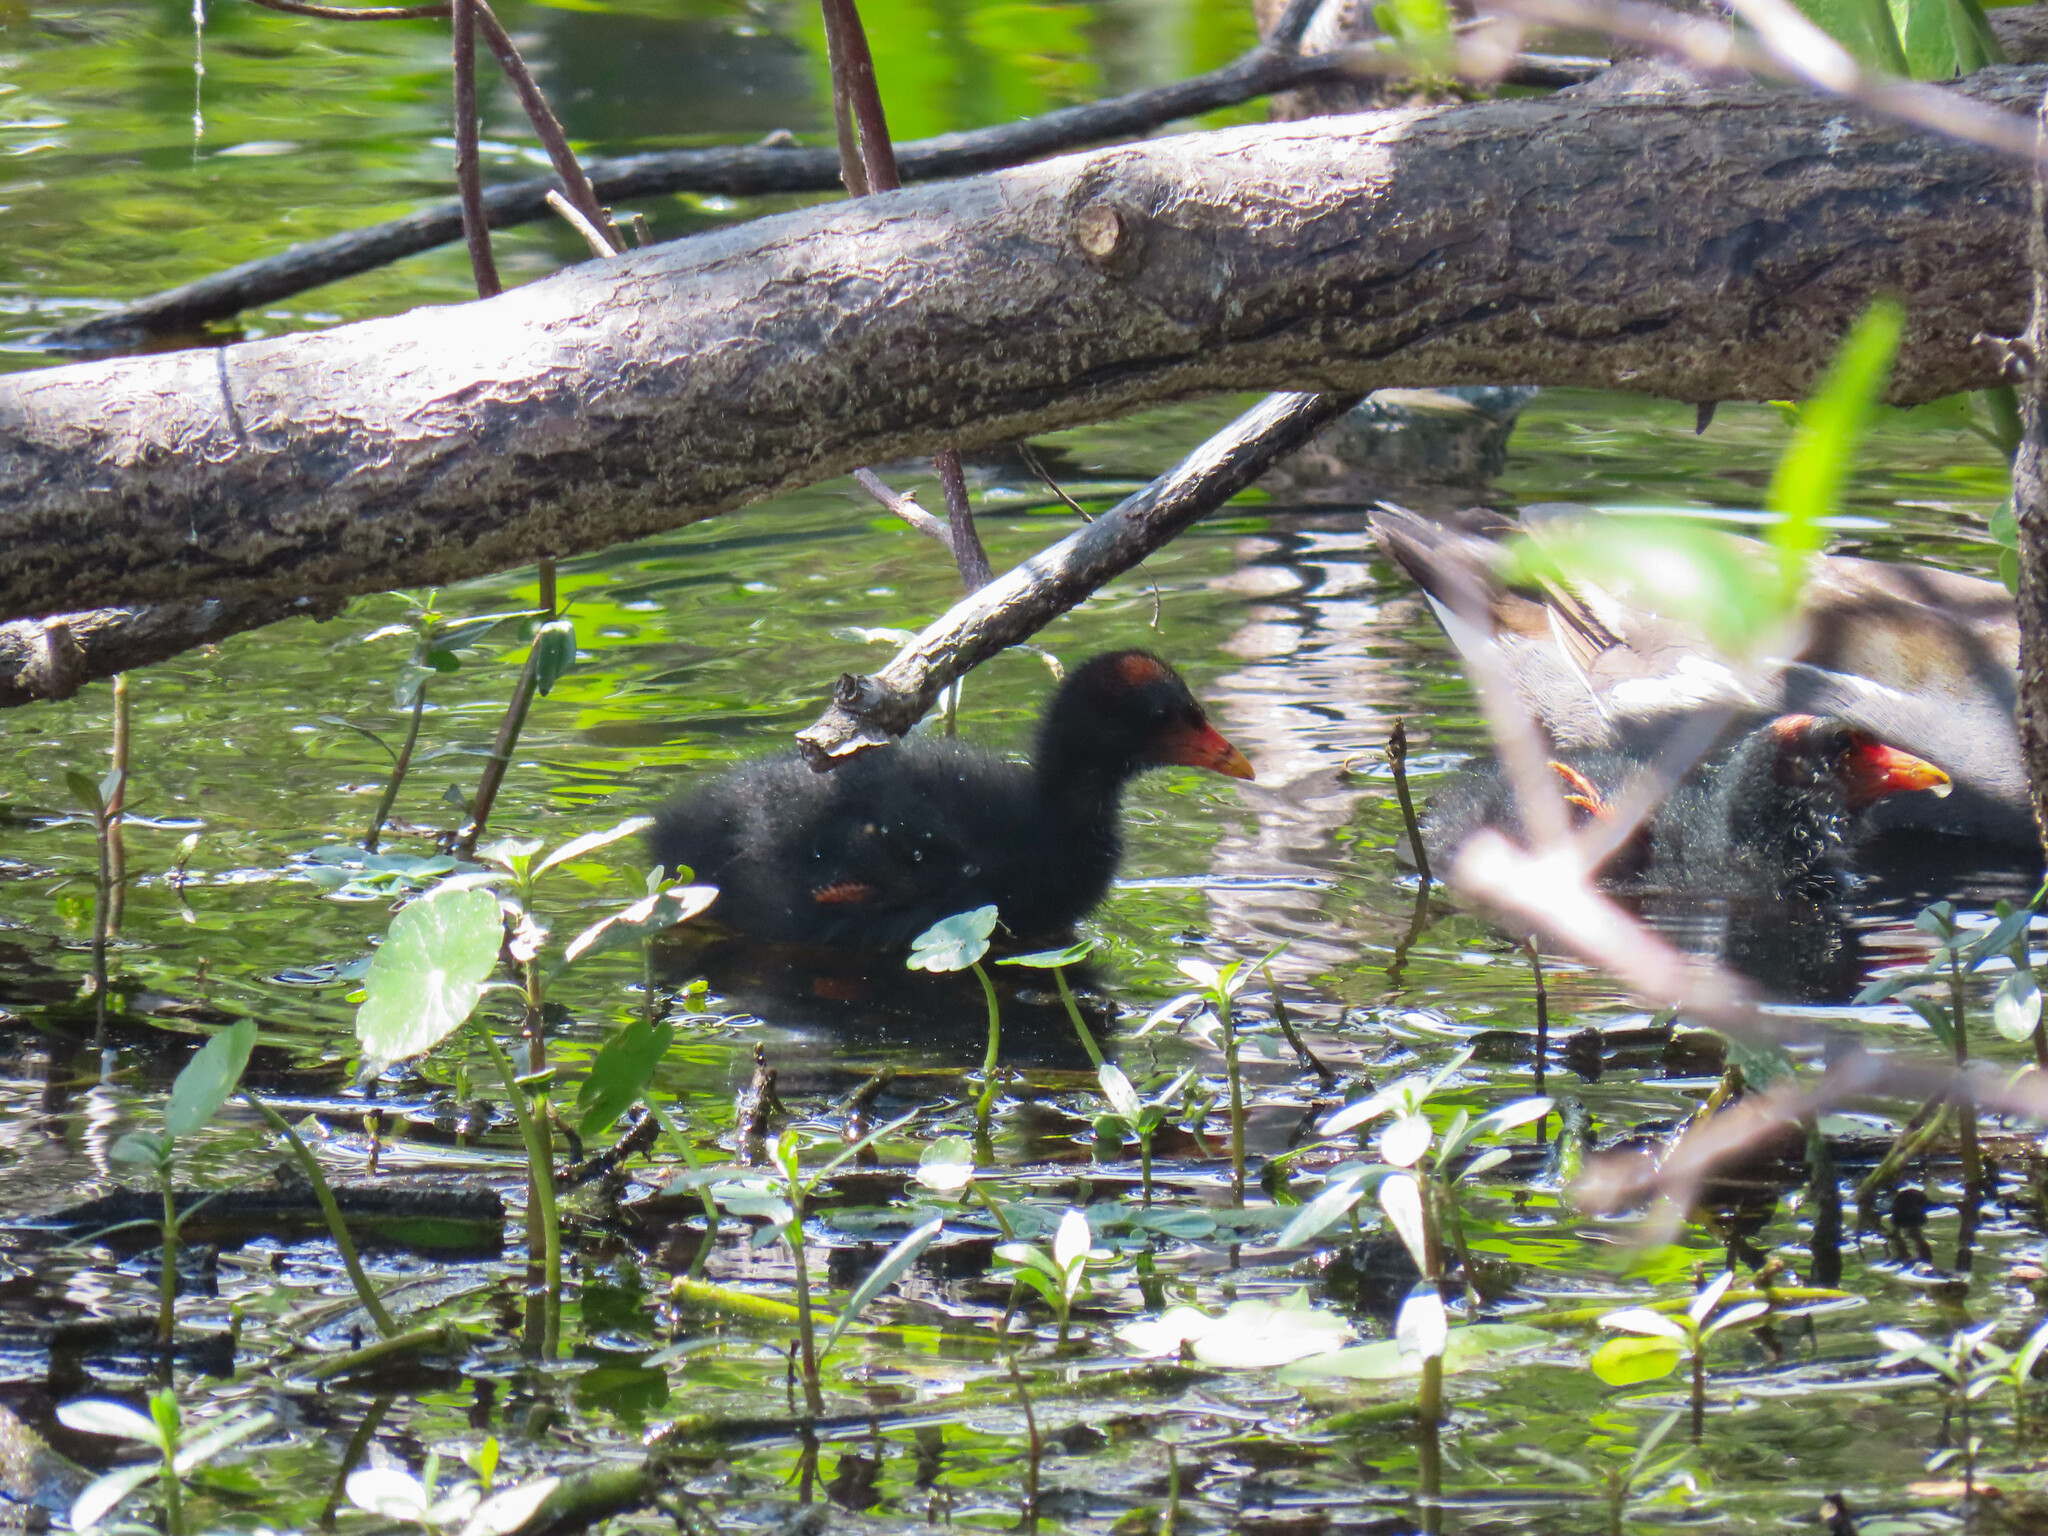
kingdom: Animalia
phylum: Chordata
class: Aves
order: Gruiformes
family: Rallidae
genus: Gallinula
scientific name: Gallinula chloropus
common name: Common moorhen
